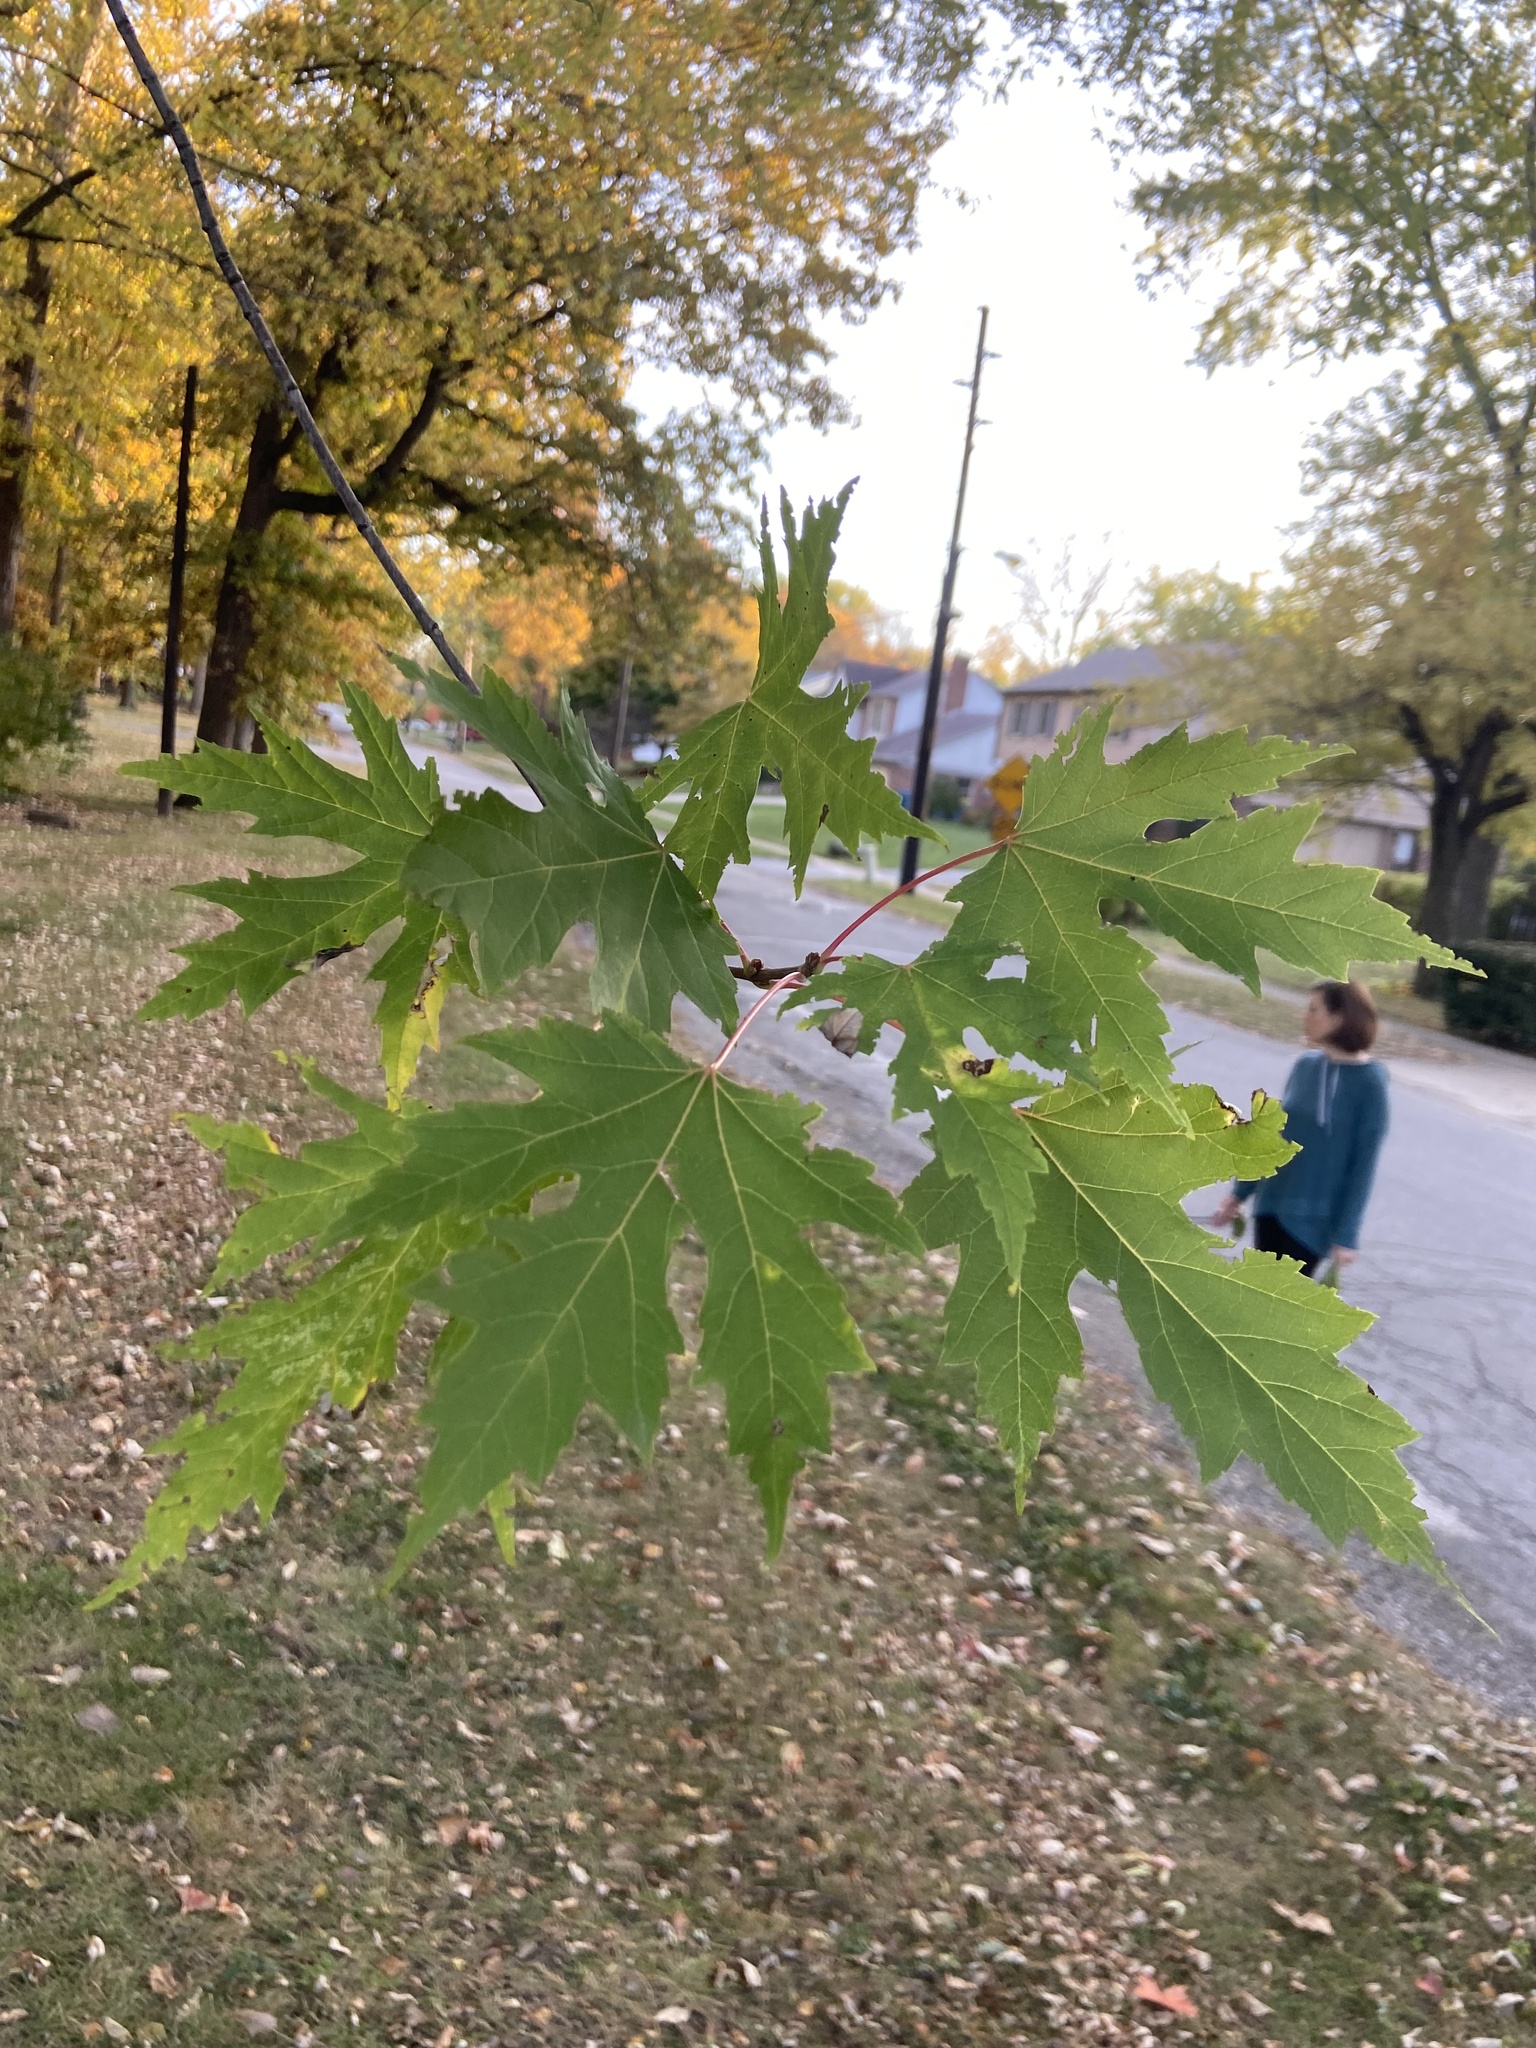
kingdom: Plantae
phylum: Tracheophyta
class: Magnoliopsida
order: Sapindales
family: Sapindaceae
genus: Acer
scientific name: Acer saccharinum
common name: Silver maple
